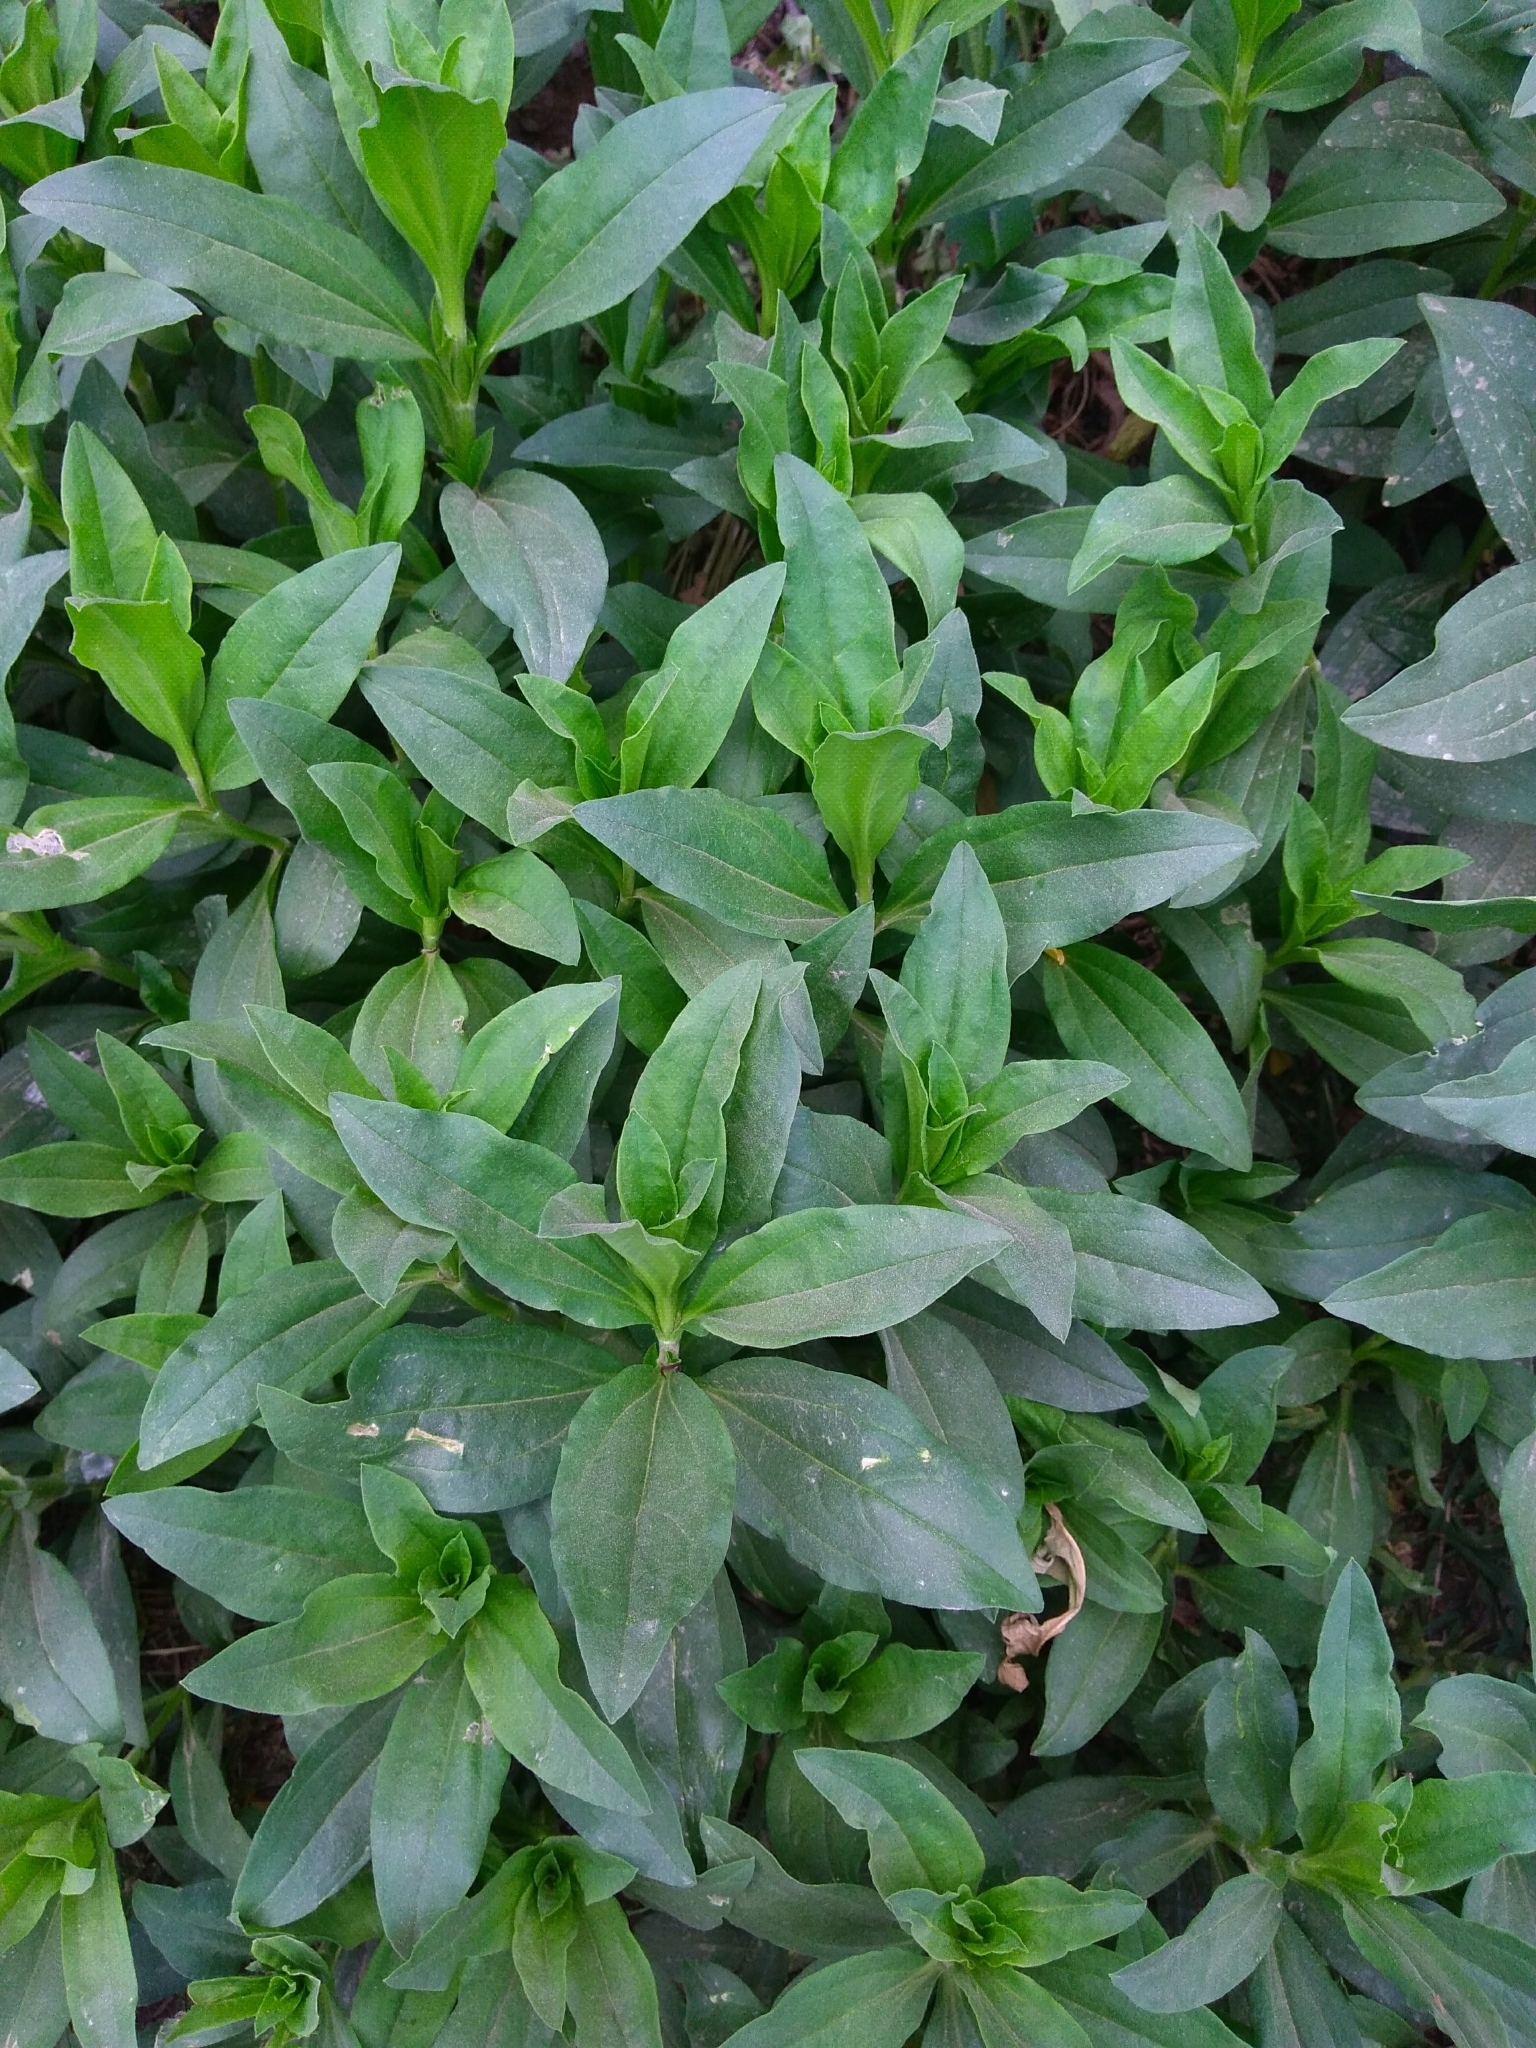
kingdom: Plantae
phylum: Tracheophyta
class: Magnoliopsida
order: Caryophyllales
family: Caryophyllaceae
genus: Saponaria
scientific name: Saponaria officinalis
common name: Soapwort
